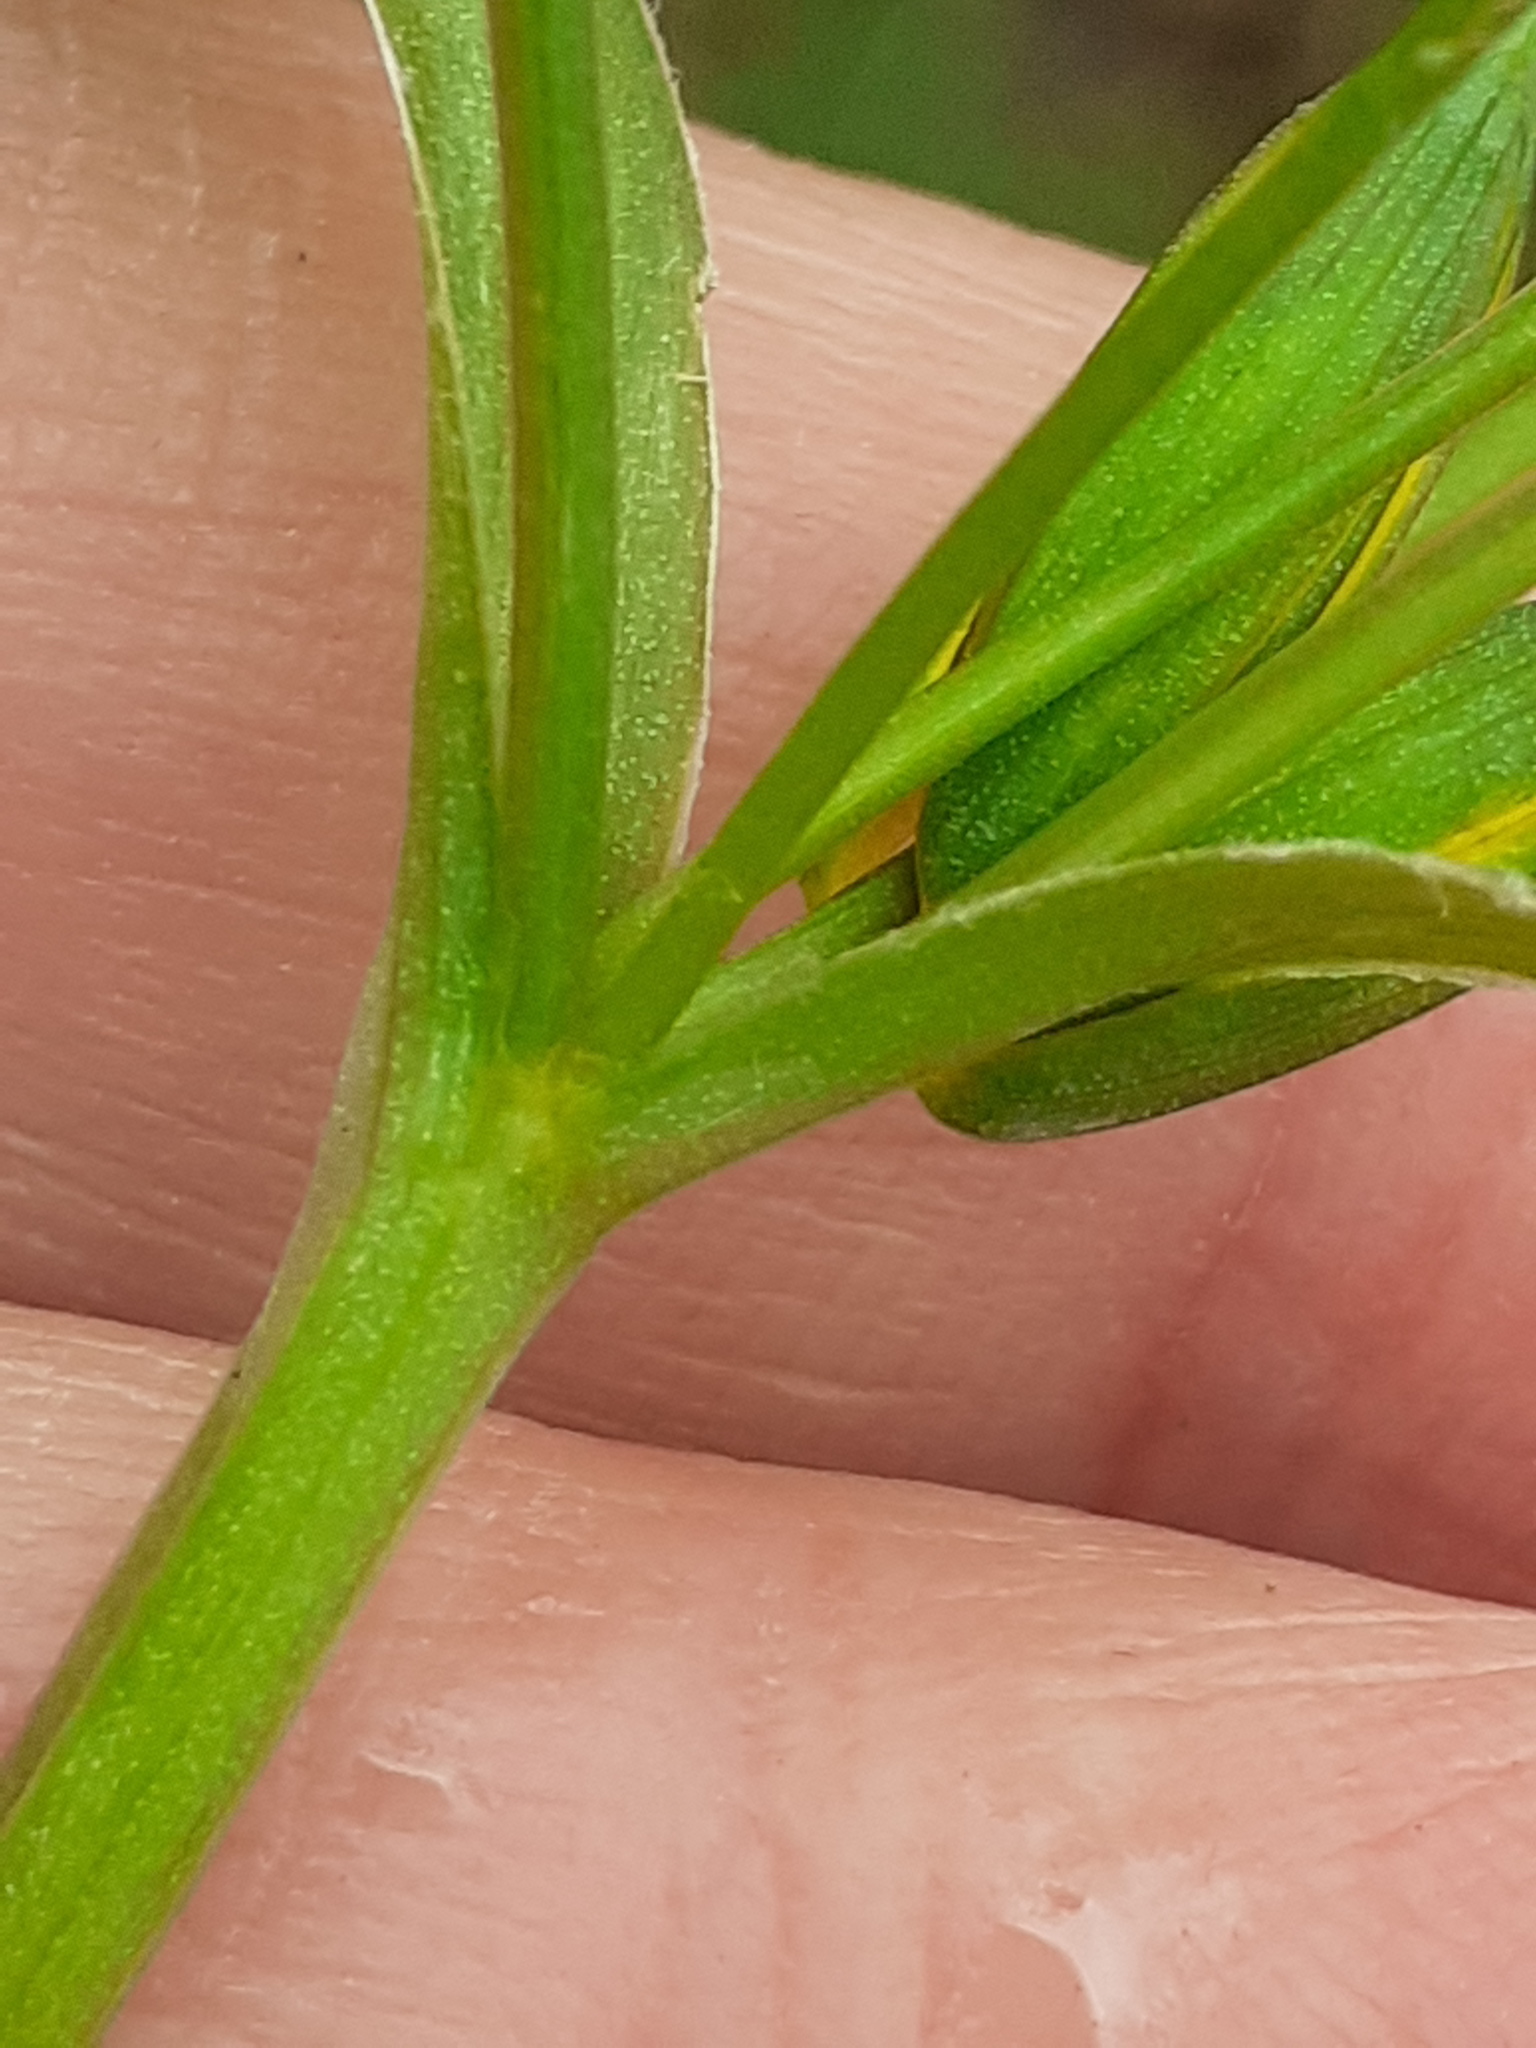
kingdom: Plantae
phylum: Tracheophyta
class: Liliopsida
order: Liliales
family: Liliaceae
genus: Gagea
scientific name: Gagea lutea
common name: Yellow star-of-bethlehem
